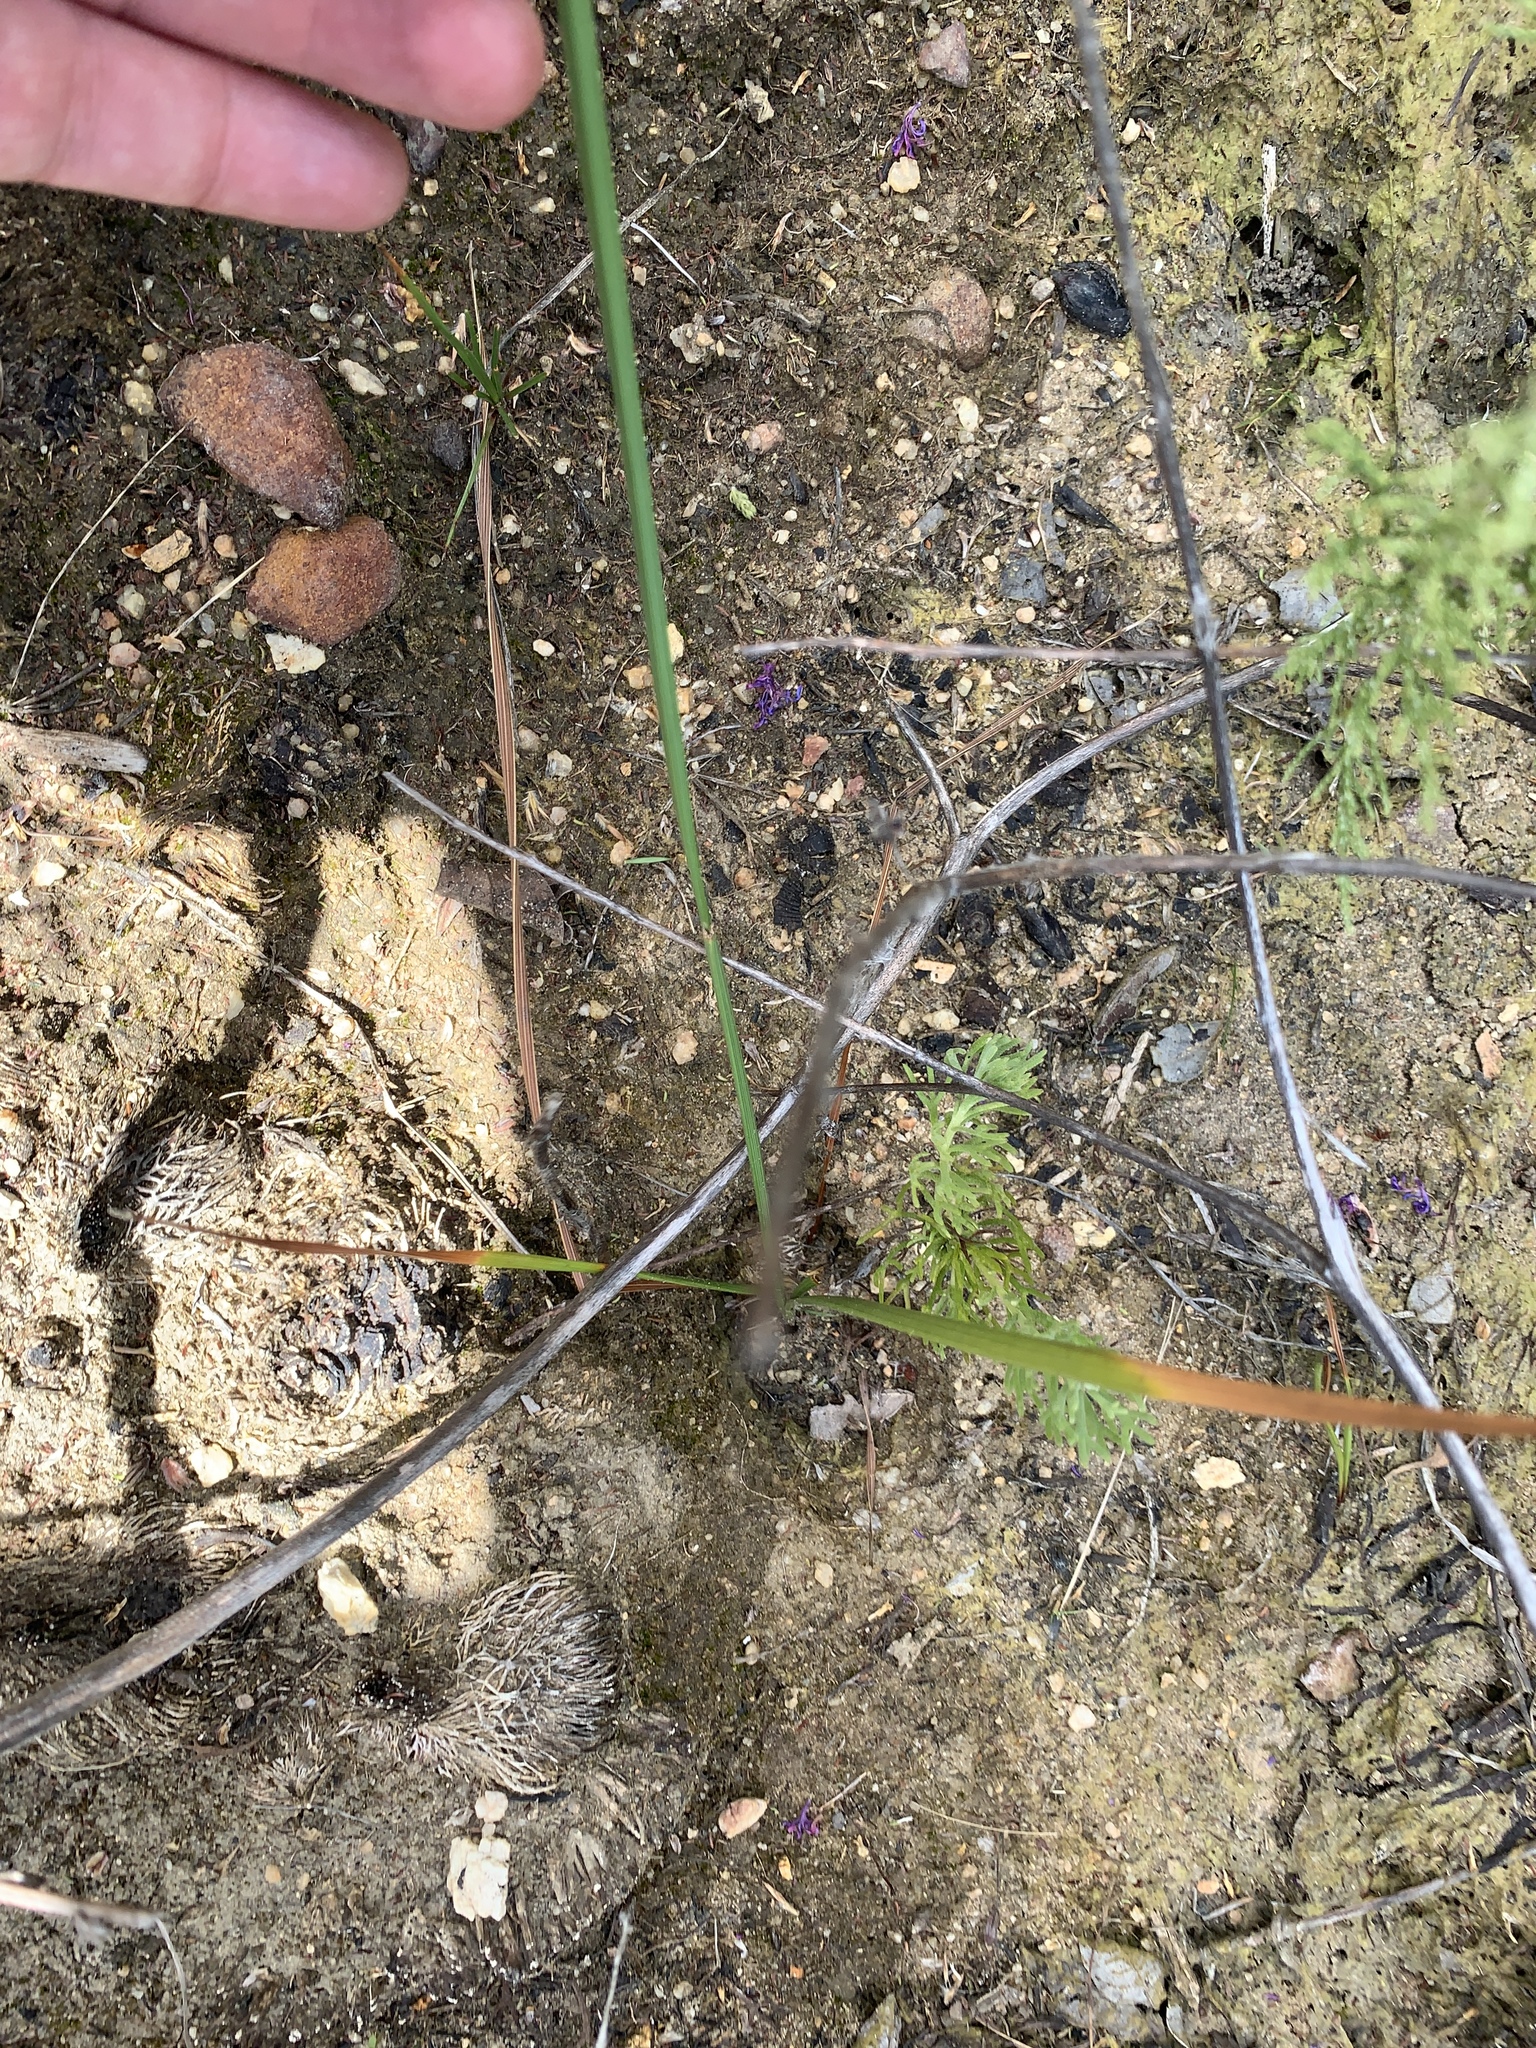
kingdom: Plantae
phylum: Tracheophyta
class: Liliopsida
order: Asparagales
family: Iridaceae
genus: Micranthus
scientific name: Micranthus alopecuroides
